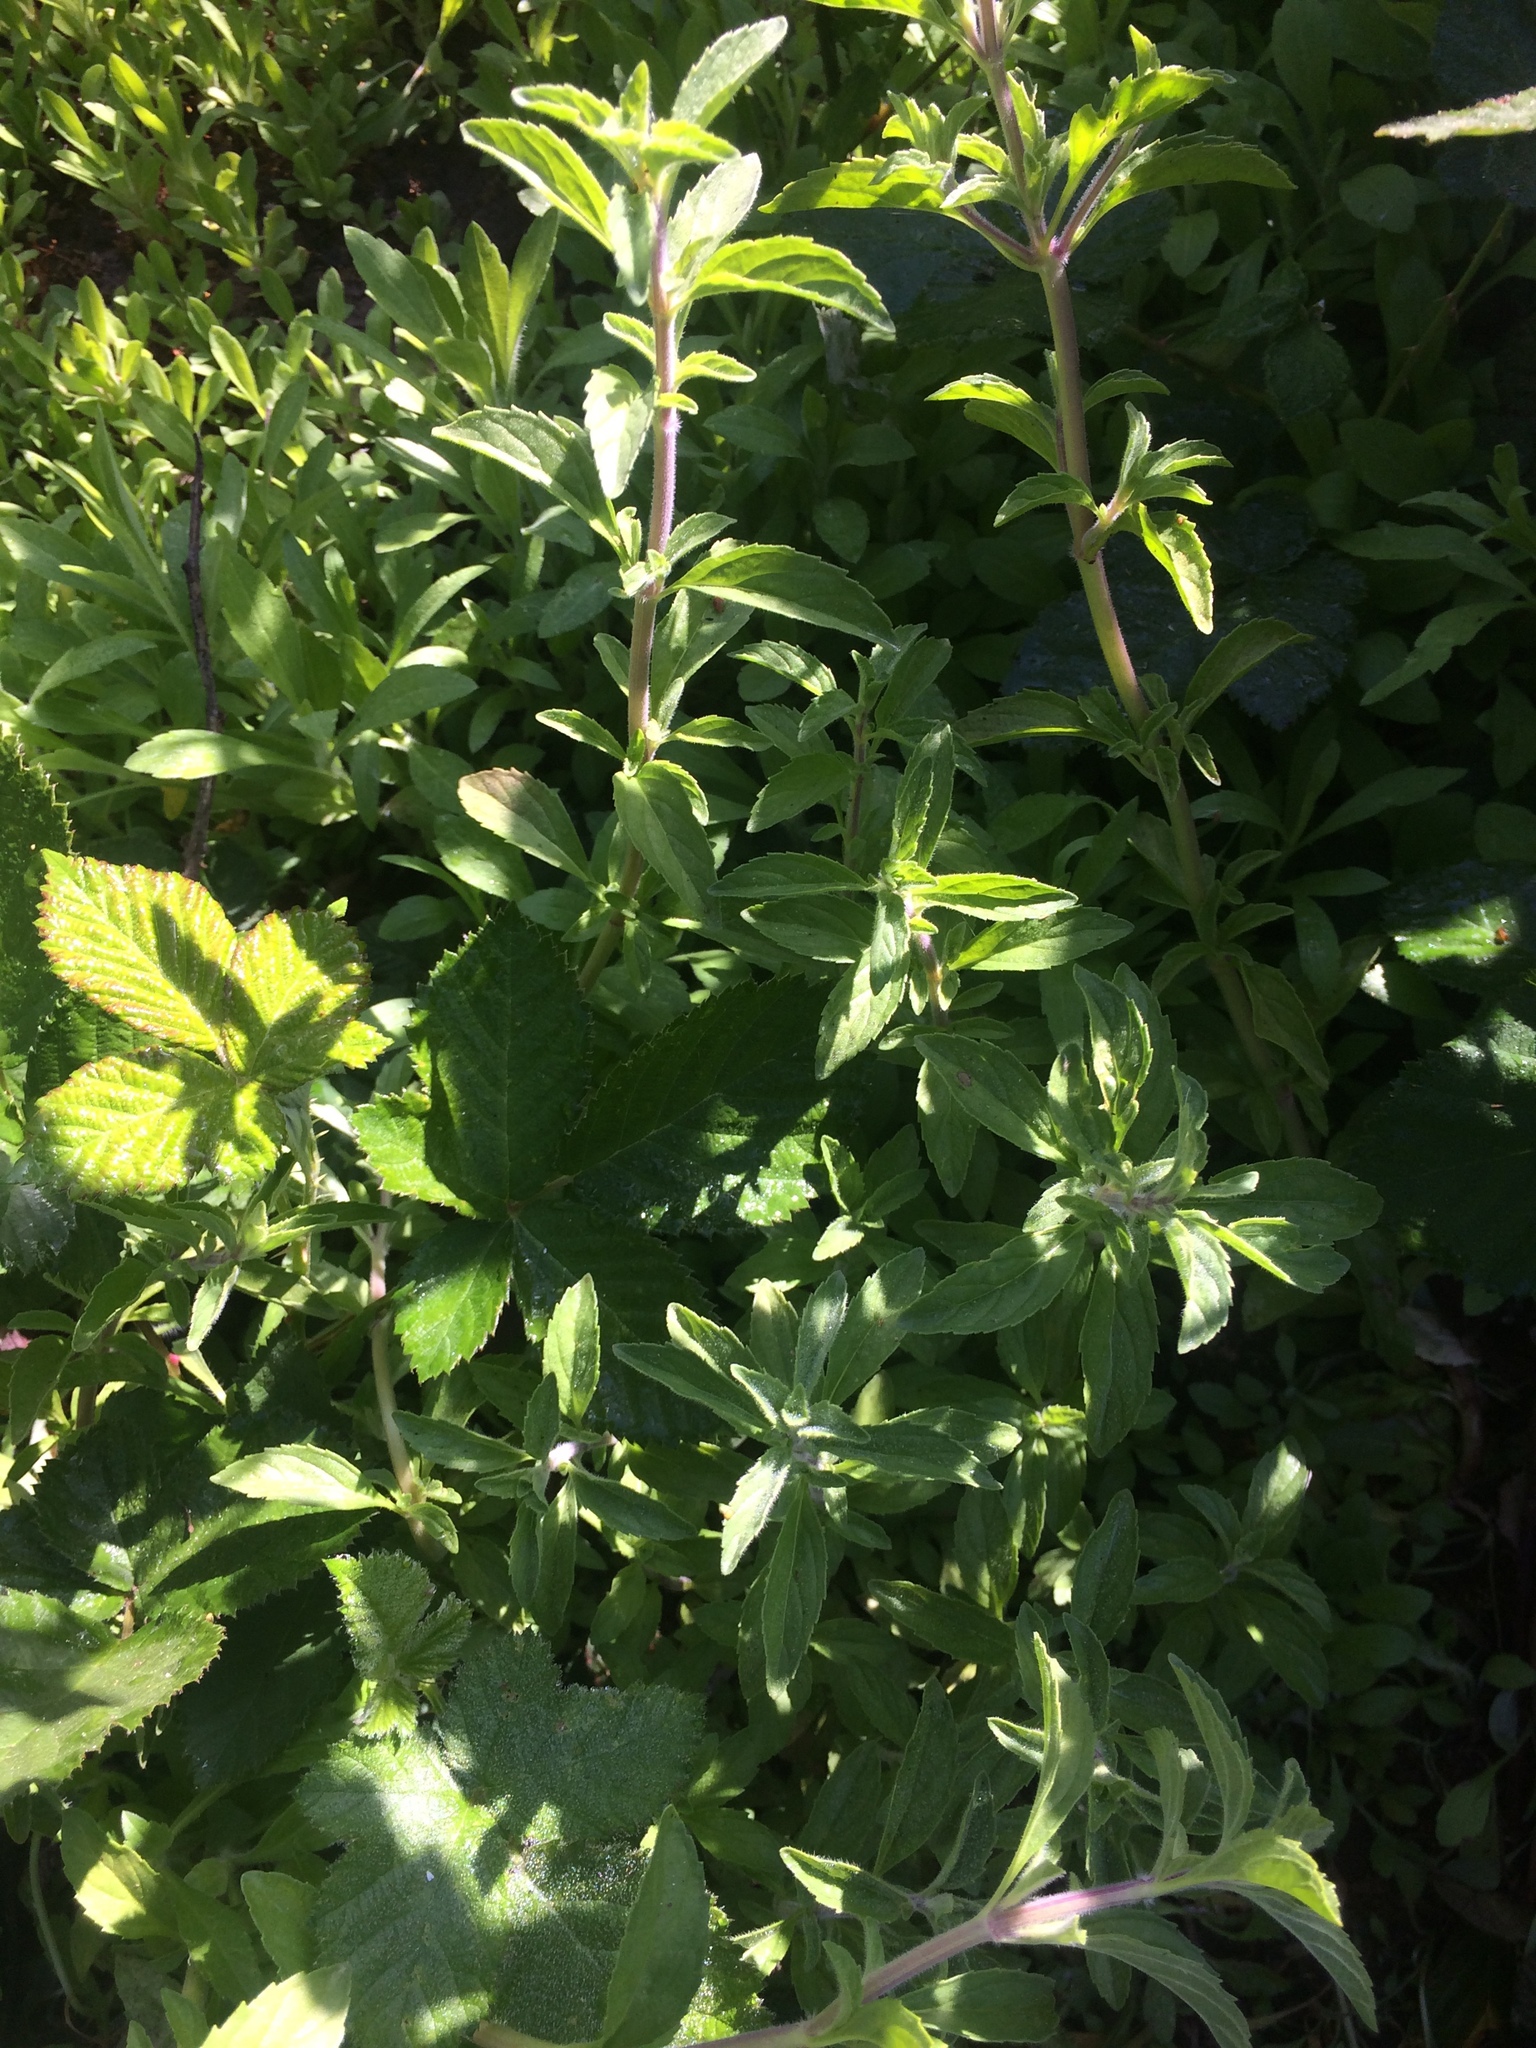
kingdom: Plantae
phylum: Tracheophyta
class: Magnoliopsida
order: Lamiales
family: Lamiaceae
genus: Mentha
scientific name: Mentha pulegium
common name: Pennyroyal
